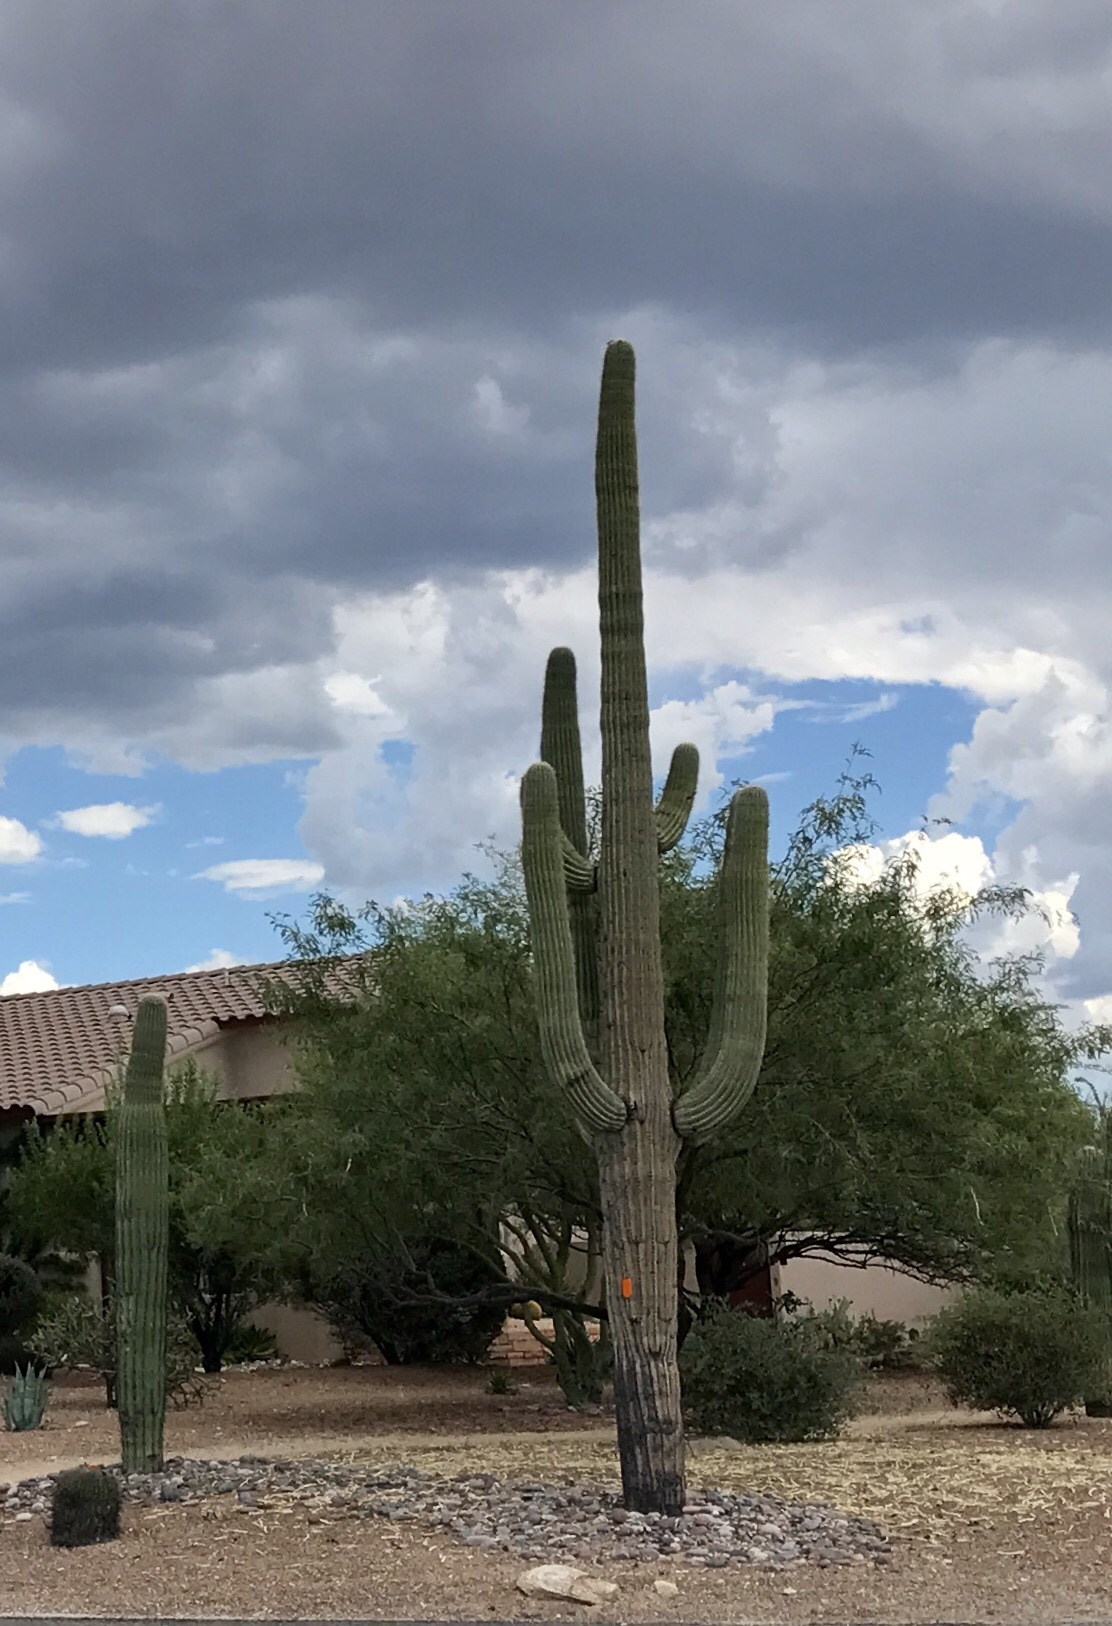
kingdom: Plantae
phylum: Tracheophyta
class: Magnoliopsida
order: Caryophyllales
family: Cactaceae
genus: Carnegiea
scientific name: Carnegiea gigantea
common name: Saguaro
